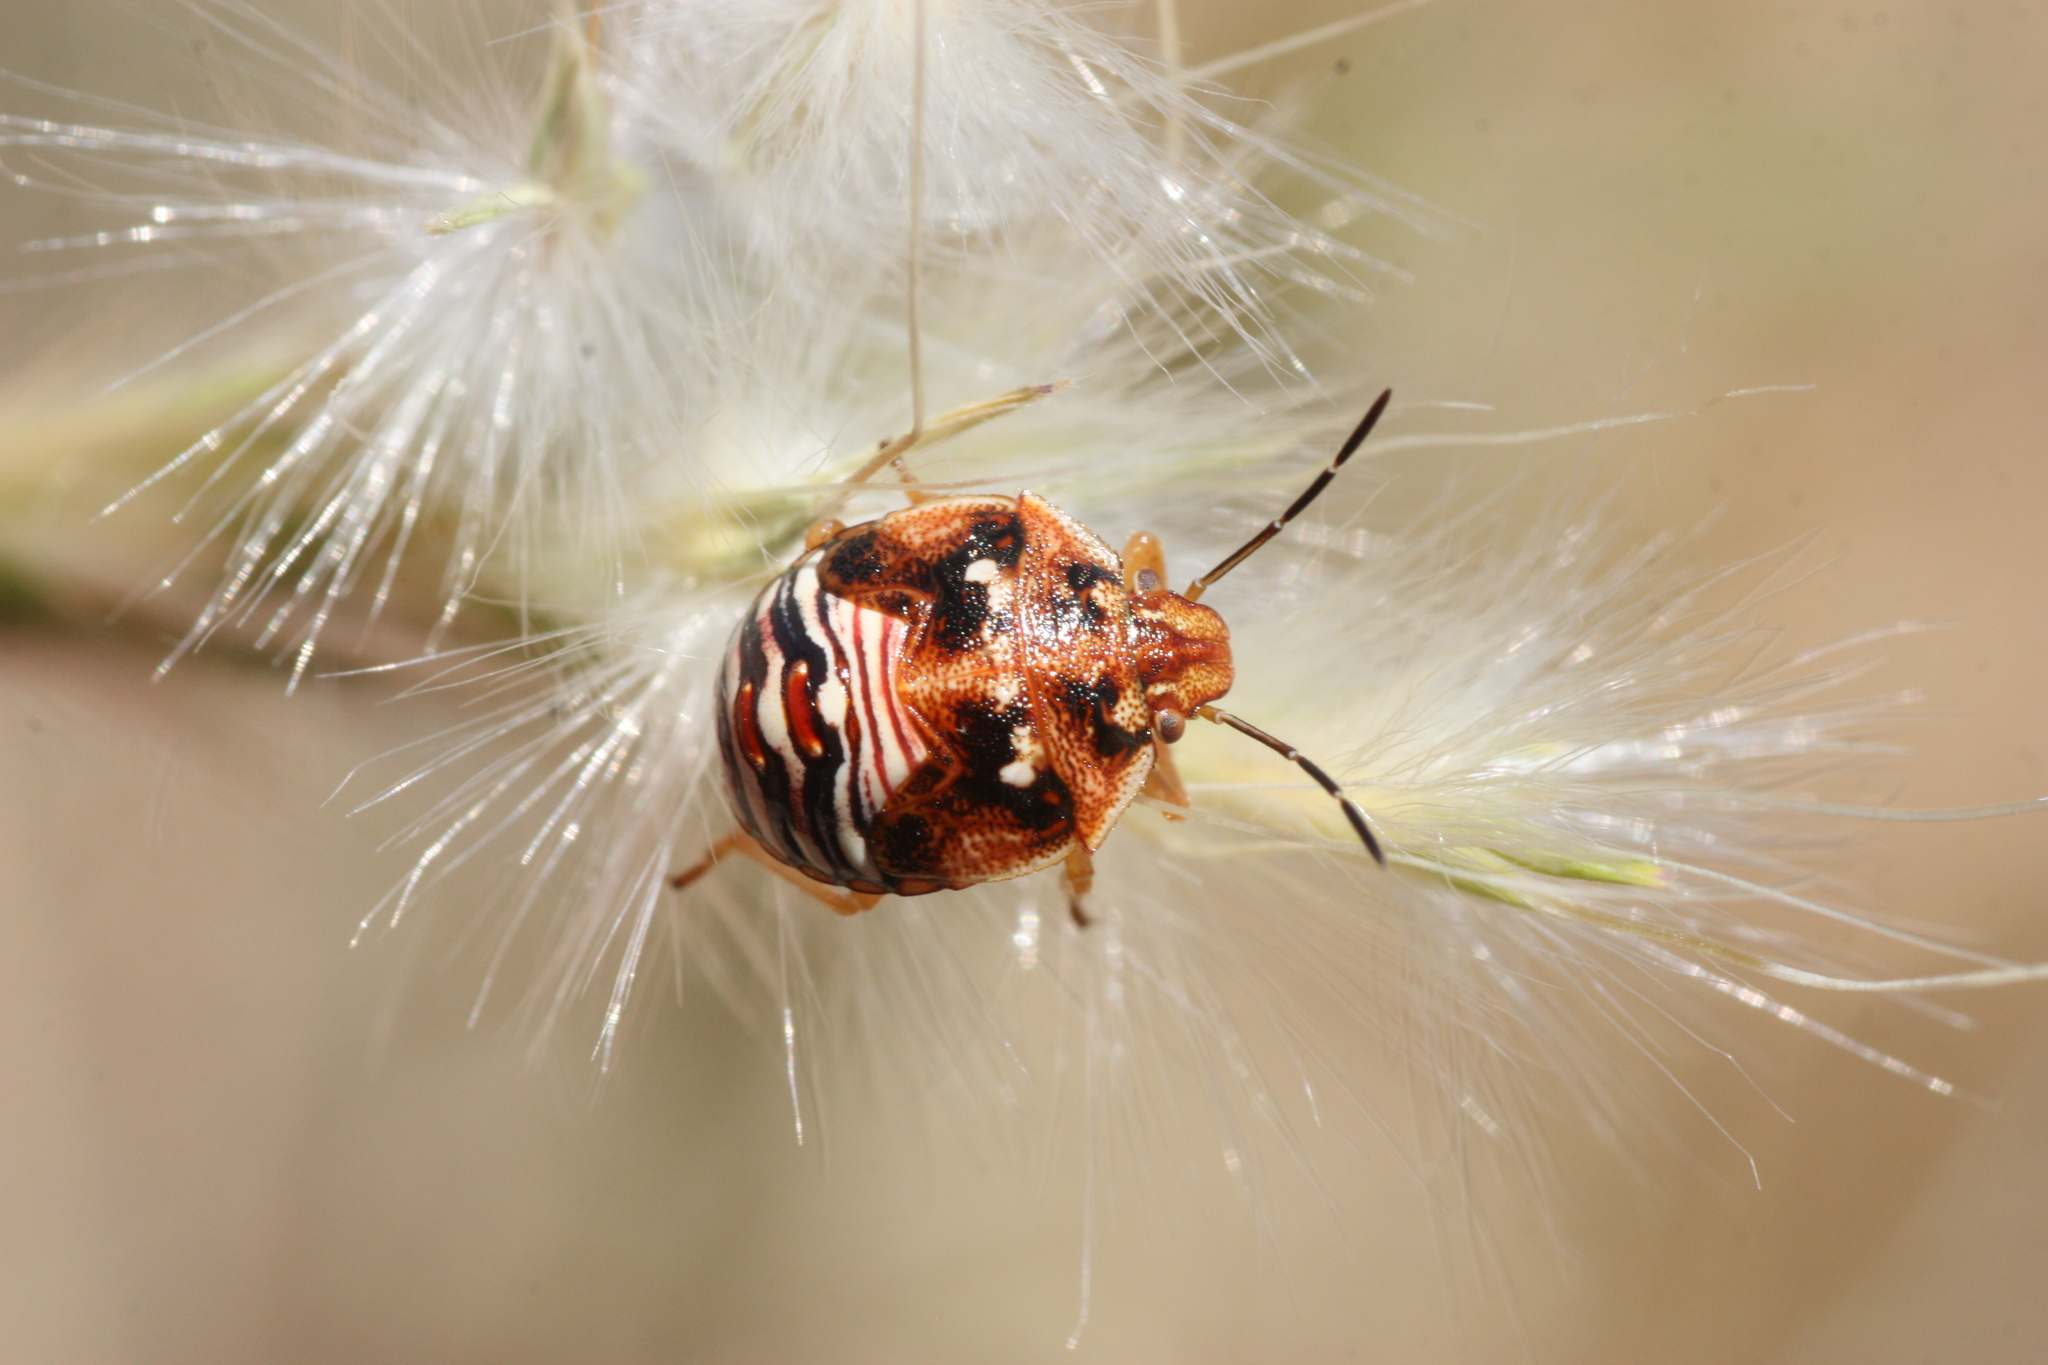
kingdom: Animalia
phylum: Arthropoda
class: Insecta
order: Hemiptera
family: Pentatomidae
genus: Thyanta
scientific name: Thyanta accerra
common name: Stink bug
